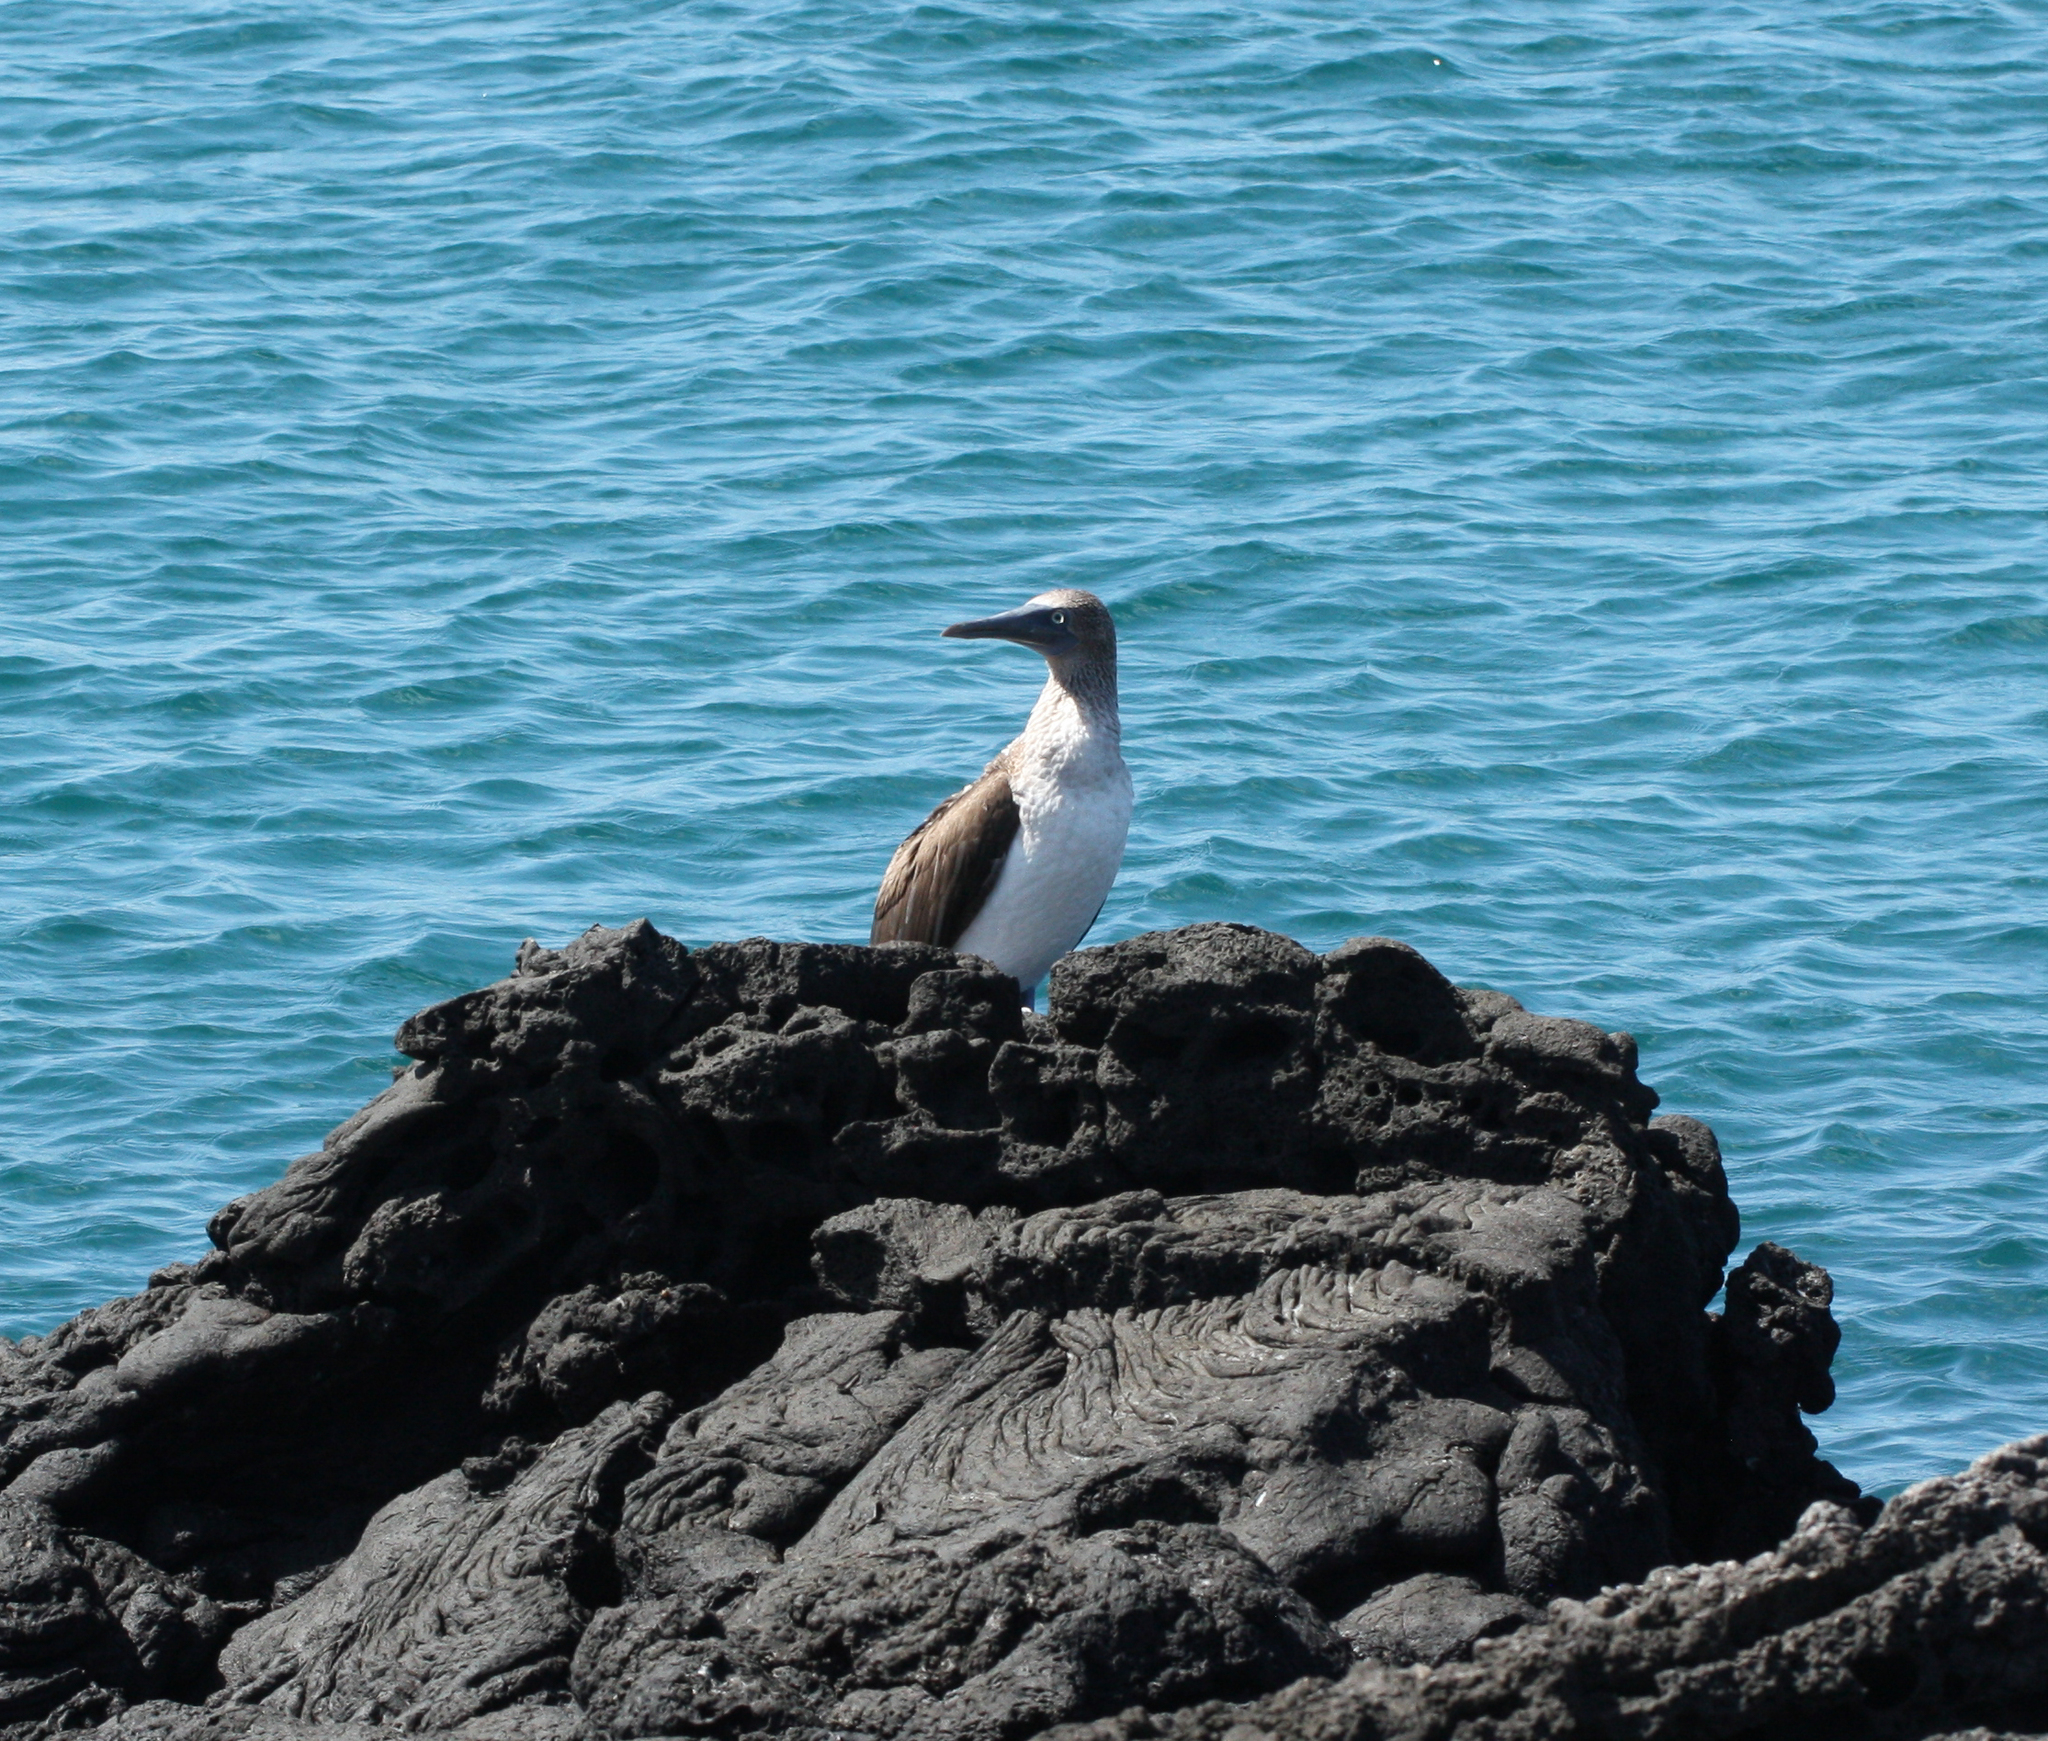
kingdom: Animalia
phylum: Chordata
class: Aves
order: Suliformes
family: Sulidae
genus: Sula
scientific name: Sula nebouxii
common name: Blue-footed booby
